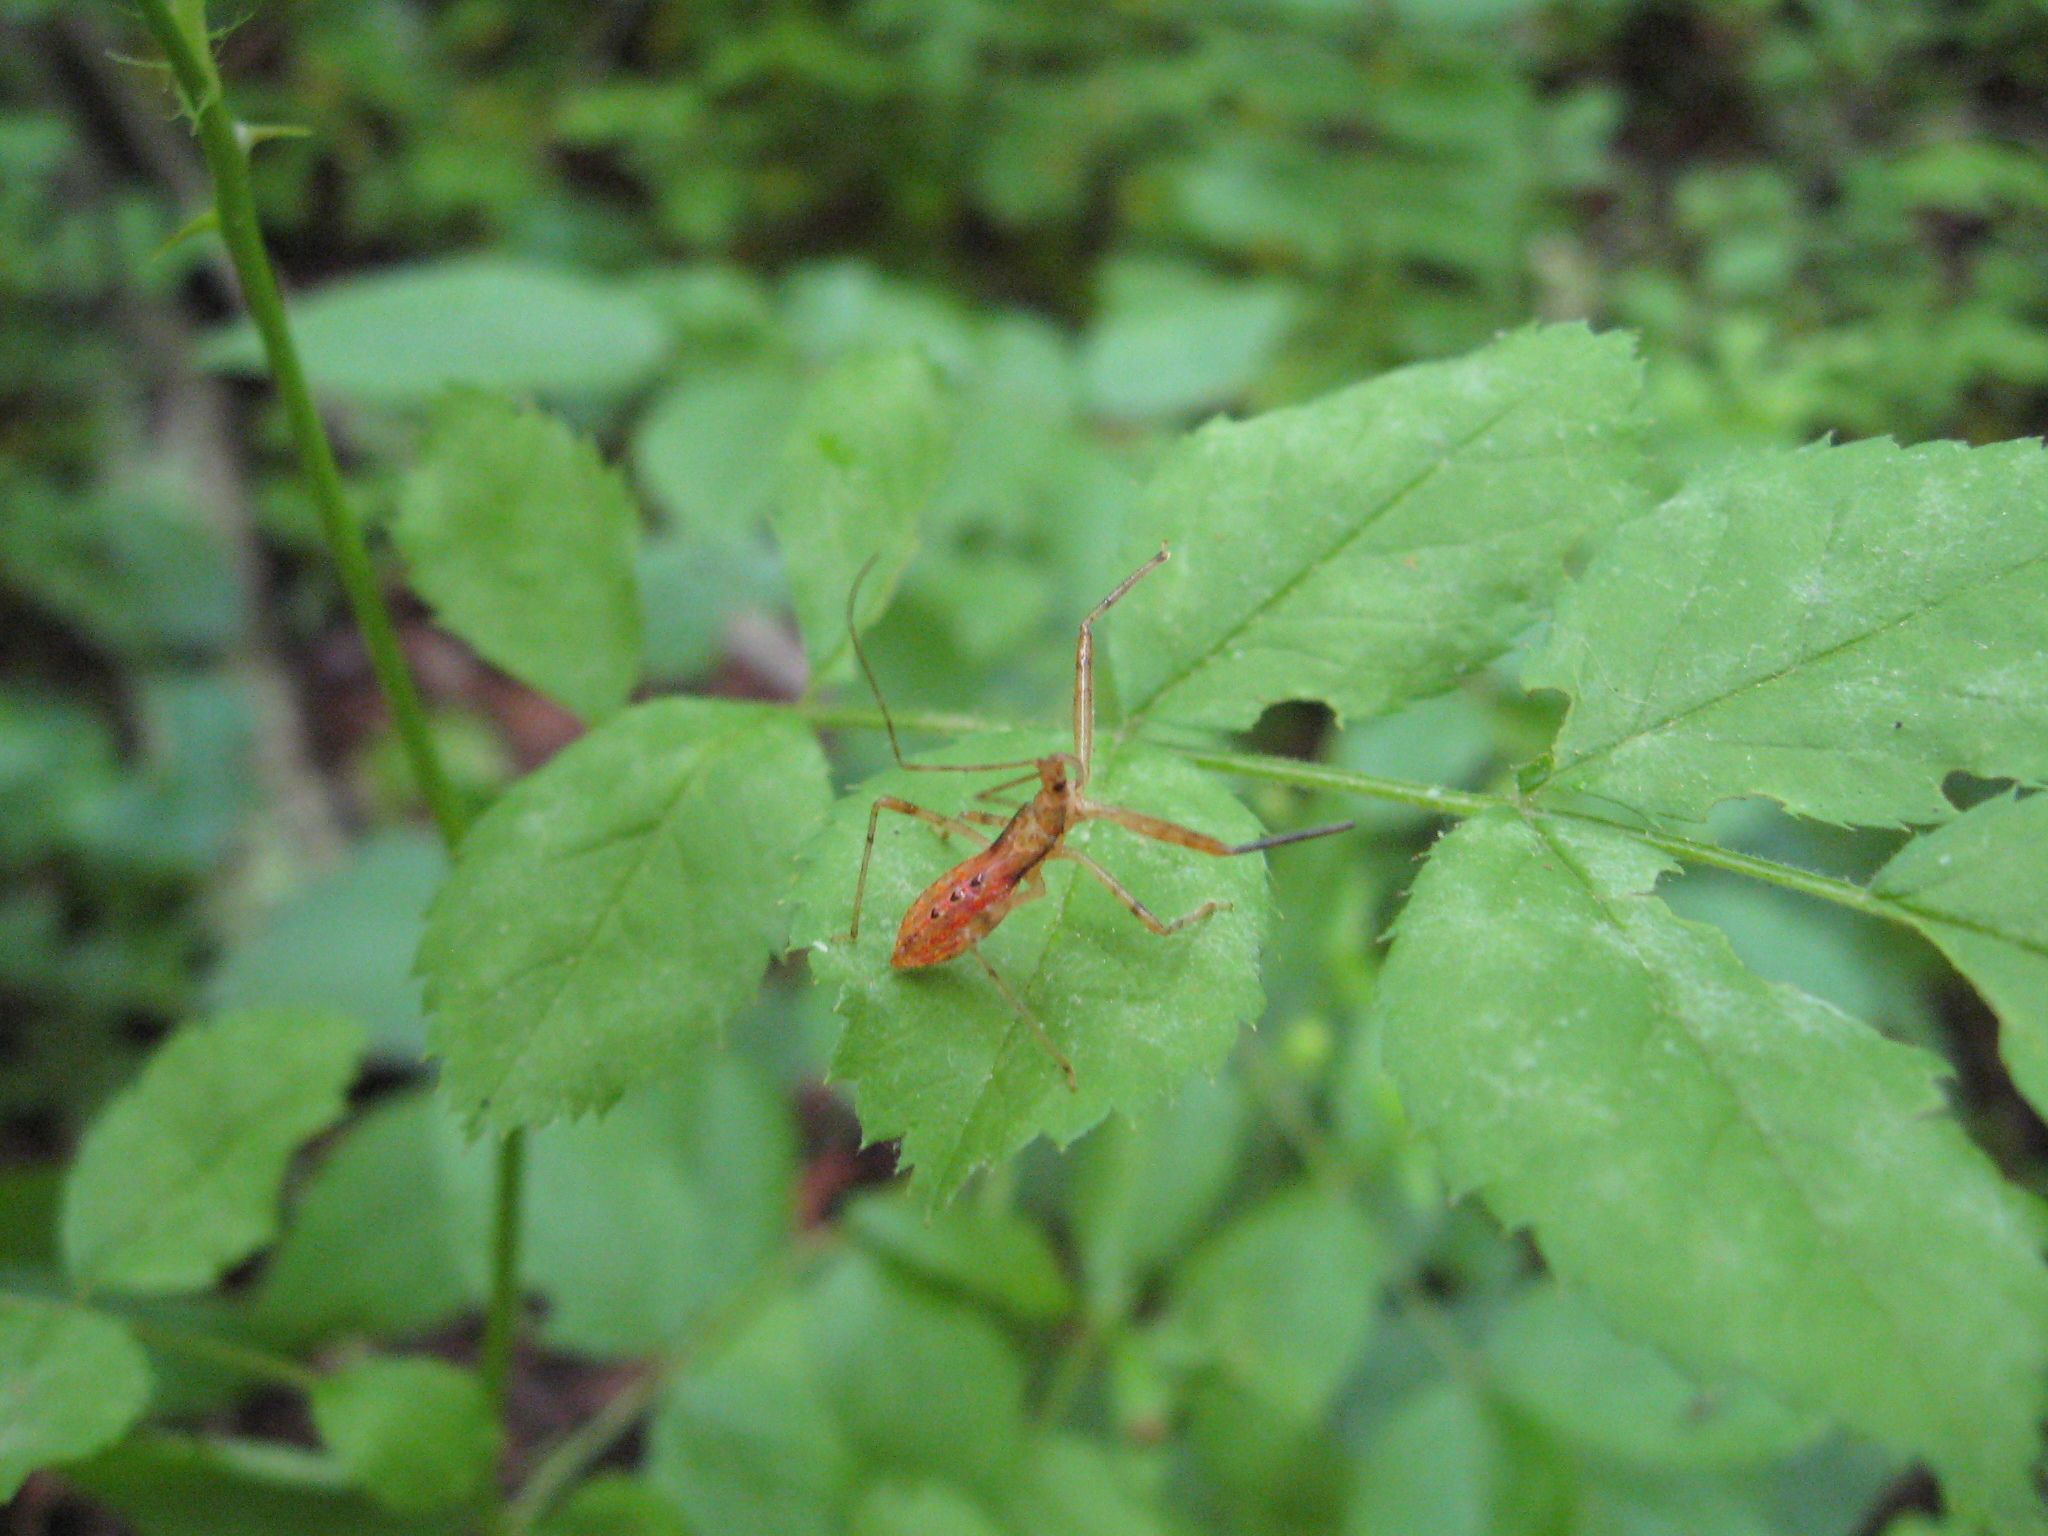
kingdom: Animalia
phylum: Arthropoda
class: Insecta
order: Hemiptera
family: Reduviidae
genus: Rocconota
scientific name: Rocconota annulicornis
